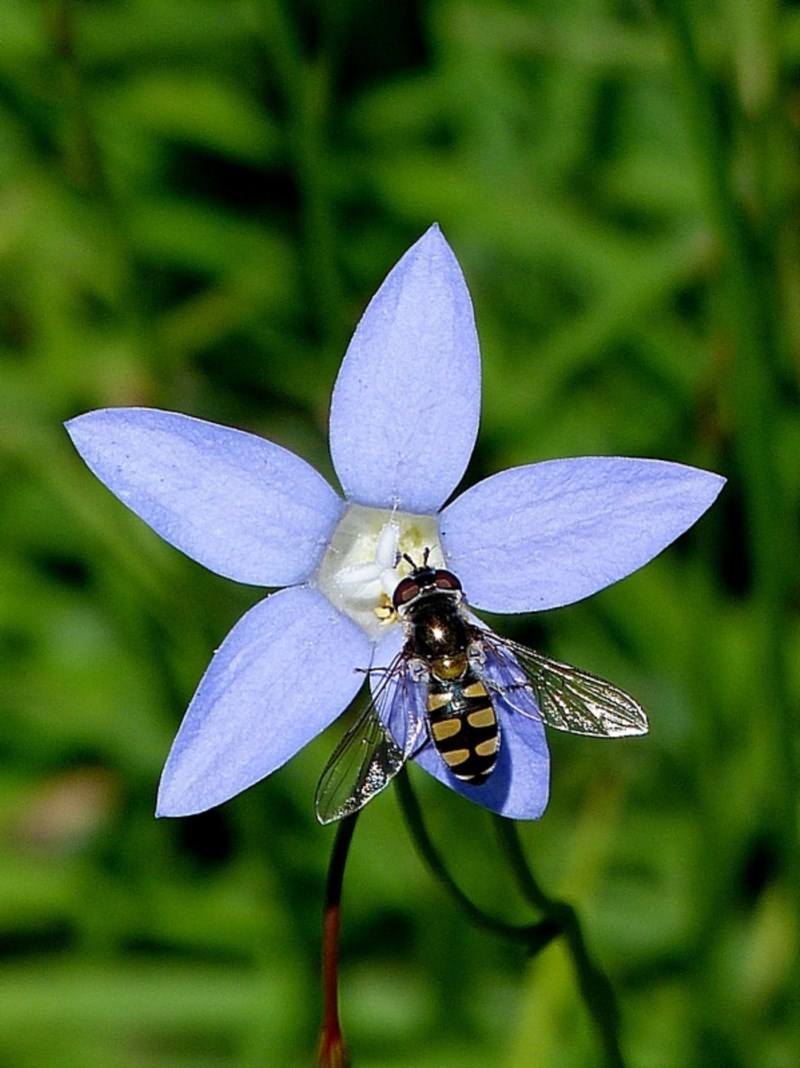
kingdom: Animalia
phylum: Arthropoda
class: Insecta
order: Diptera
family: Syrphidae
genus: Melangyna
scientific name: Melangyna viridiceps
